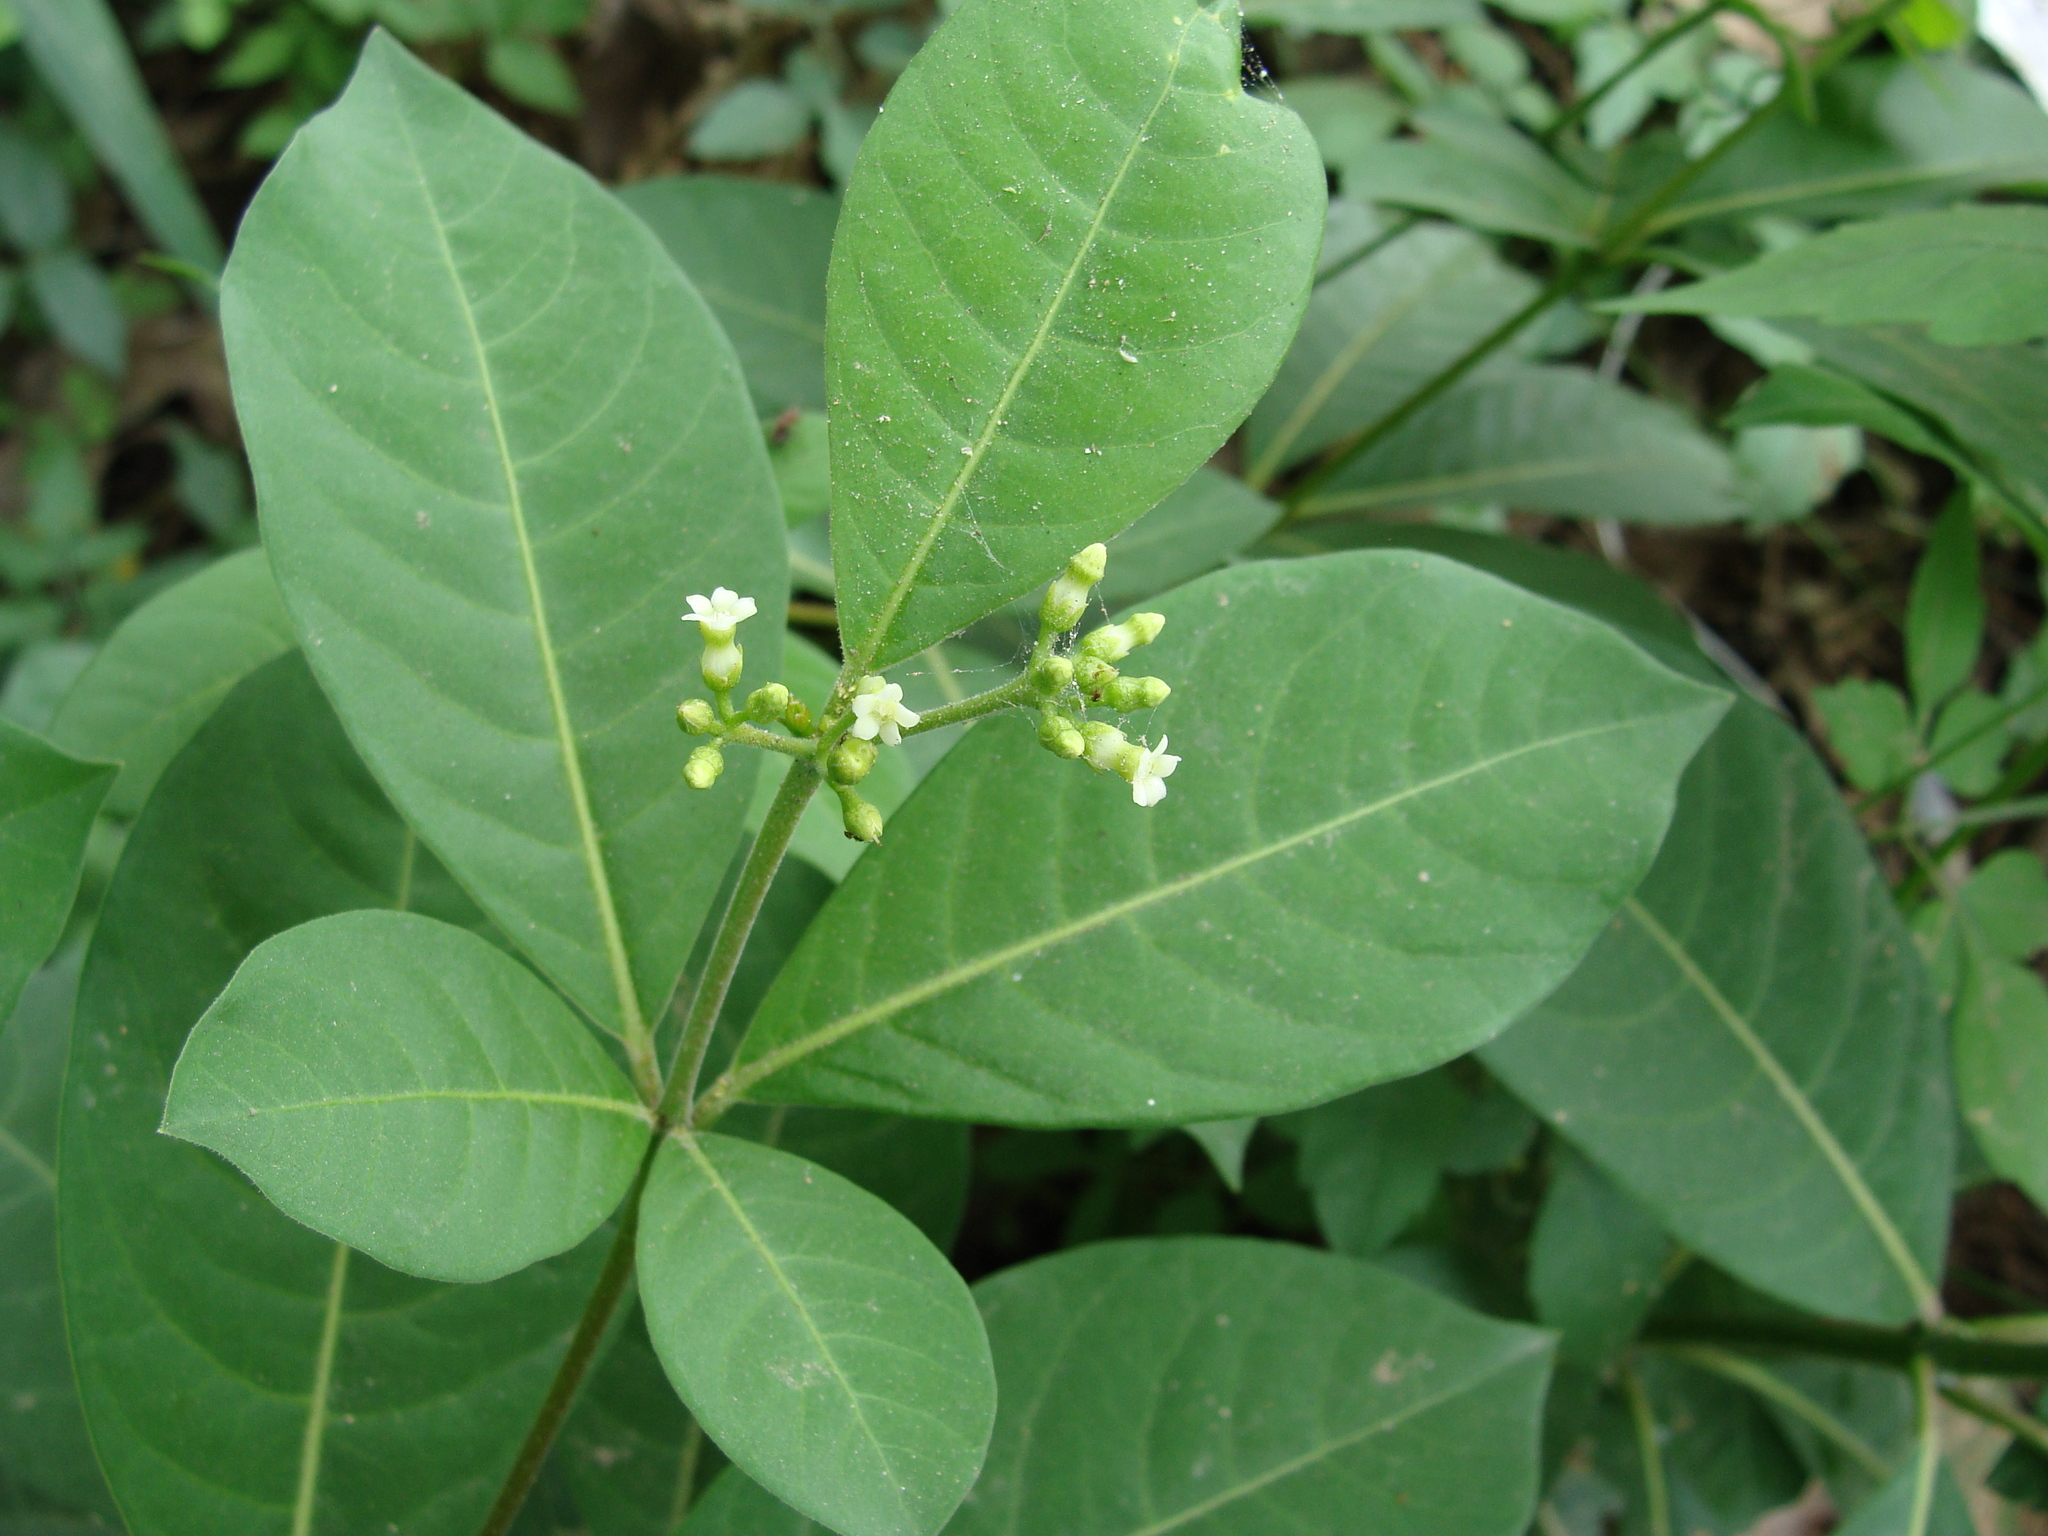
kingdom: Plantae
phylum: Tracheophyta
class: Magnoliopsida
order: Gentianales
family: Apocynaceae
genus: Rauvolfia
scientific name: Rauvolfia tetraphylla
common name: Four-leaf devil-pepper
